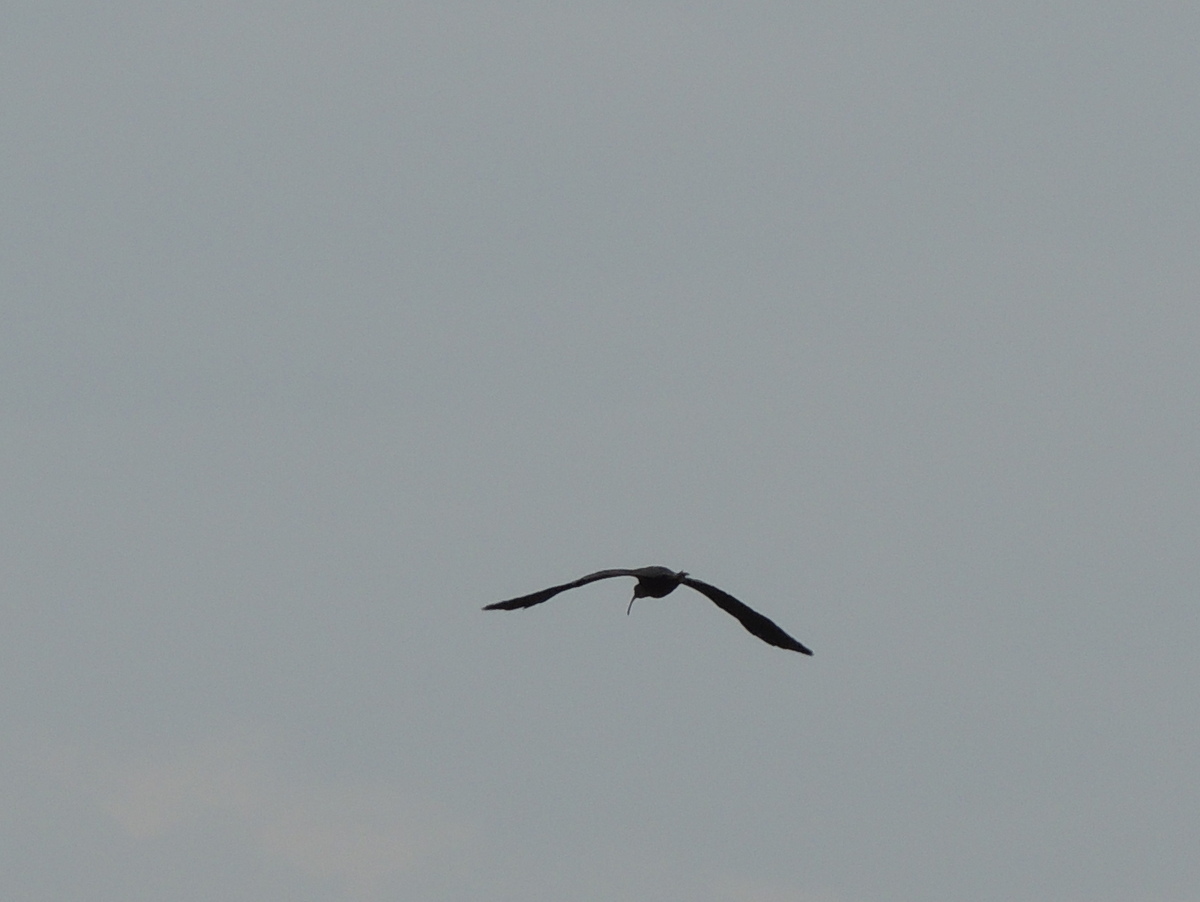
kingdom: Animalia
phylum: Chordata
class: Aves
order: Pelecaniformes
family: Threskiornithidae
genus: Plegadis
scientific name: Plegadis falcinellus
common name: Glossy ibis
